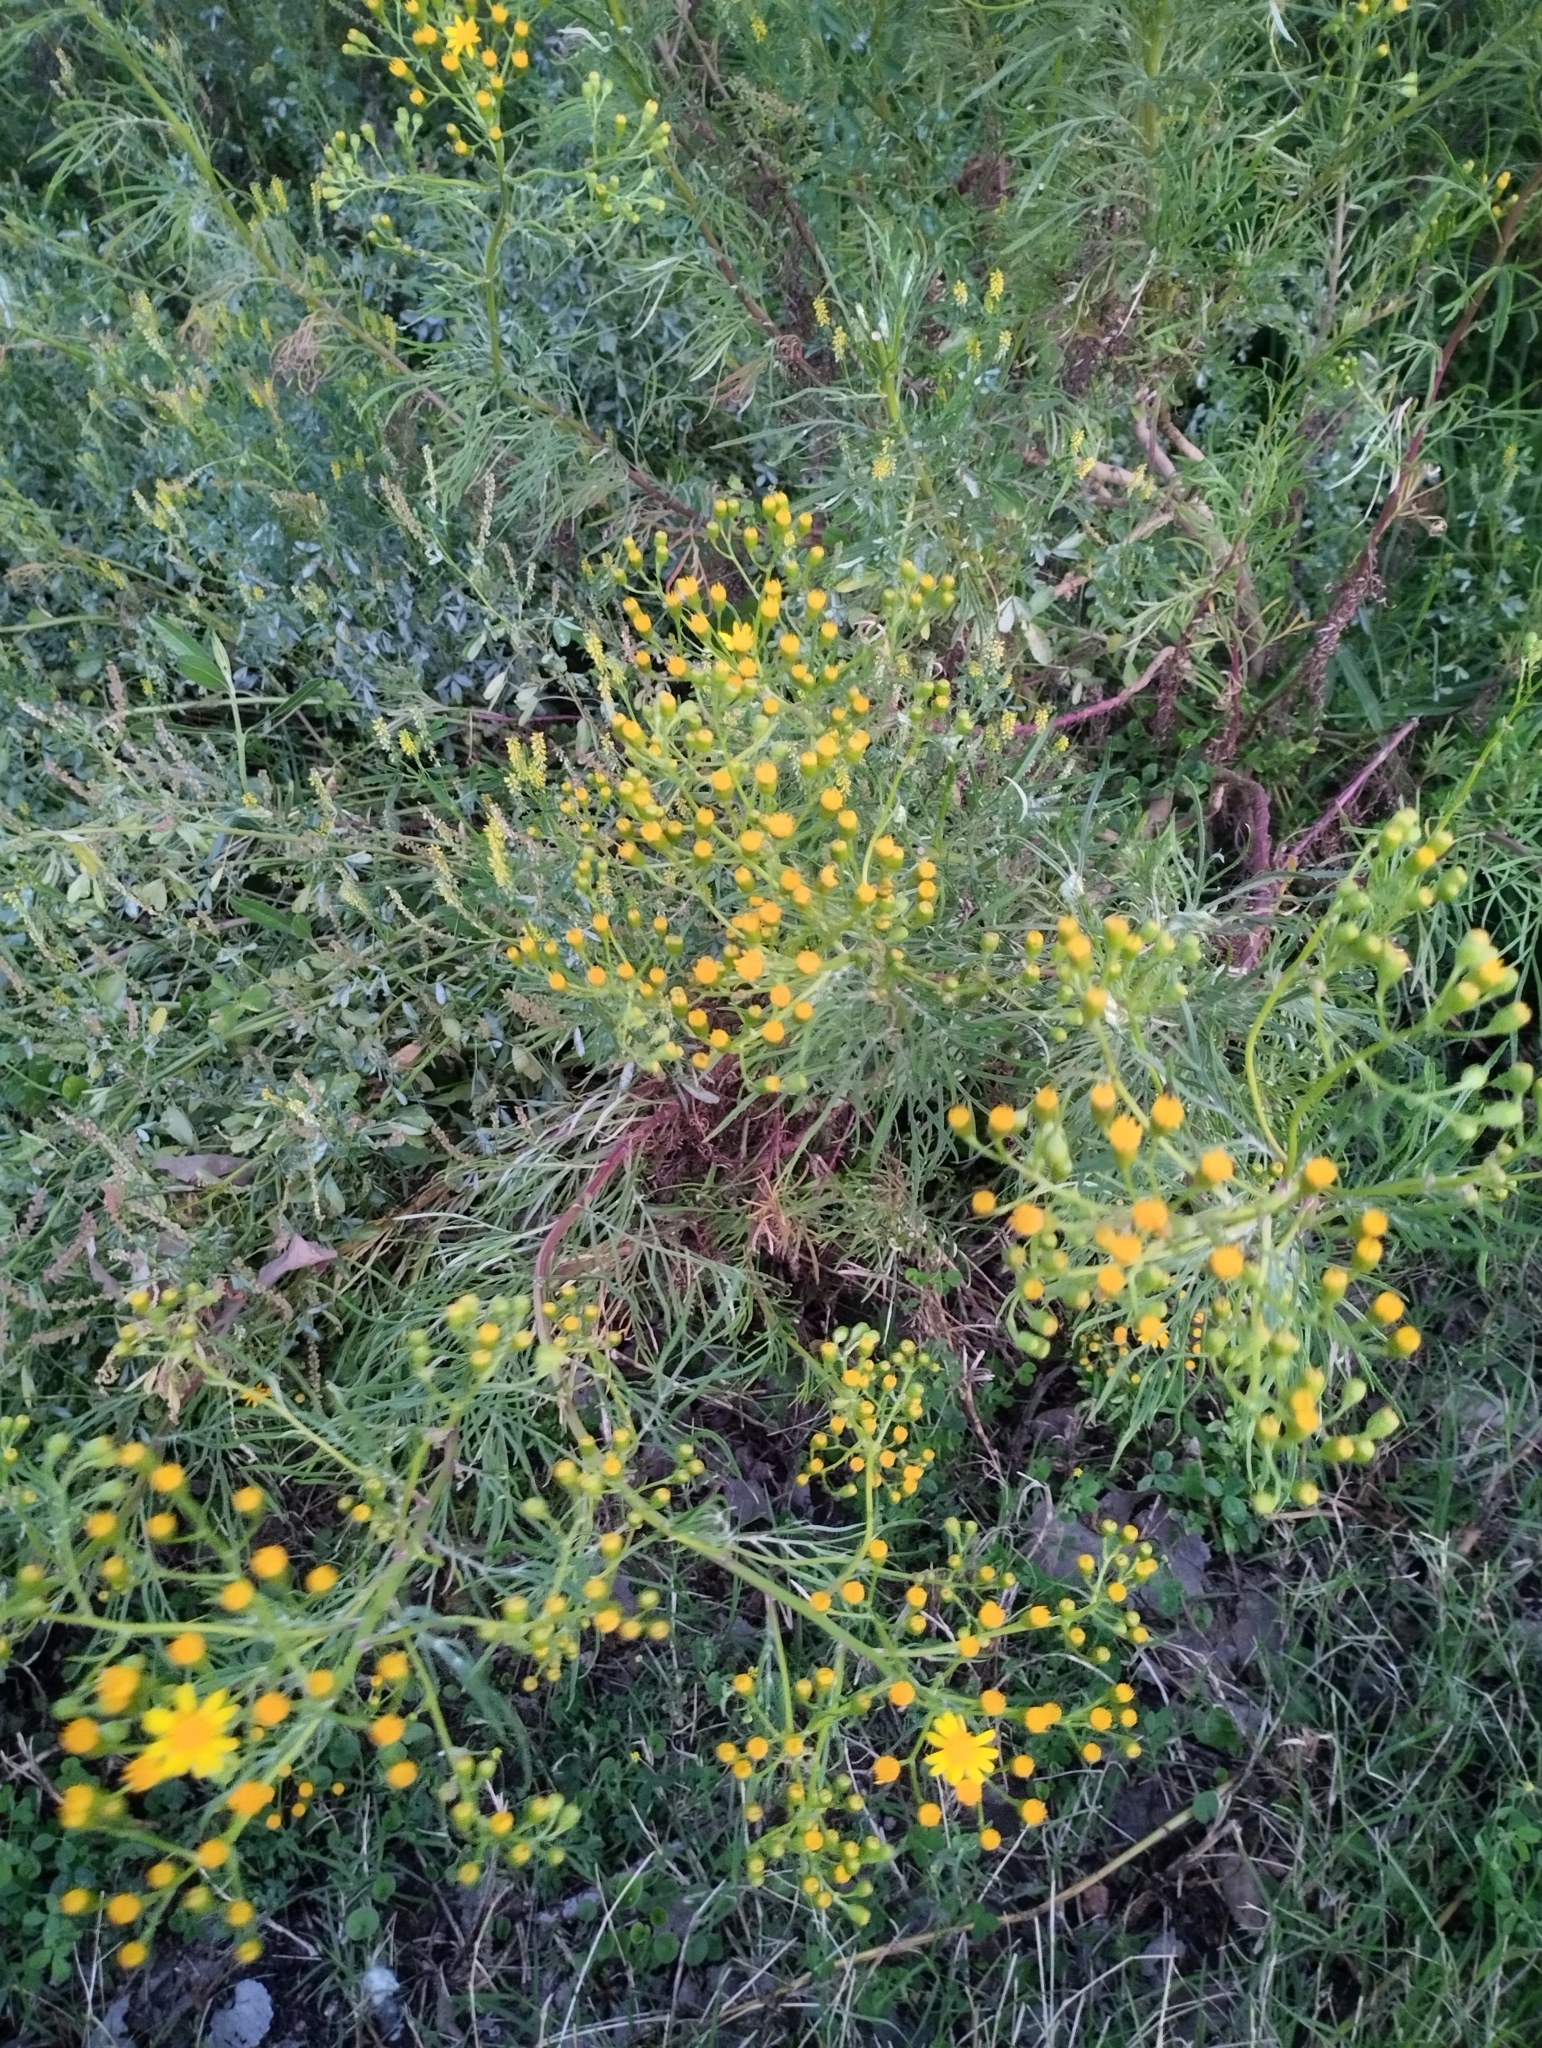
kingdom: Plantae
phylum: Tracheophyta
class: Magnoliopsida
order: Asterales
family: Asteraceae
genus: Senecio
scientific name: Senecio brasiliensis
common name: Hemp-leaf ragwort
